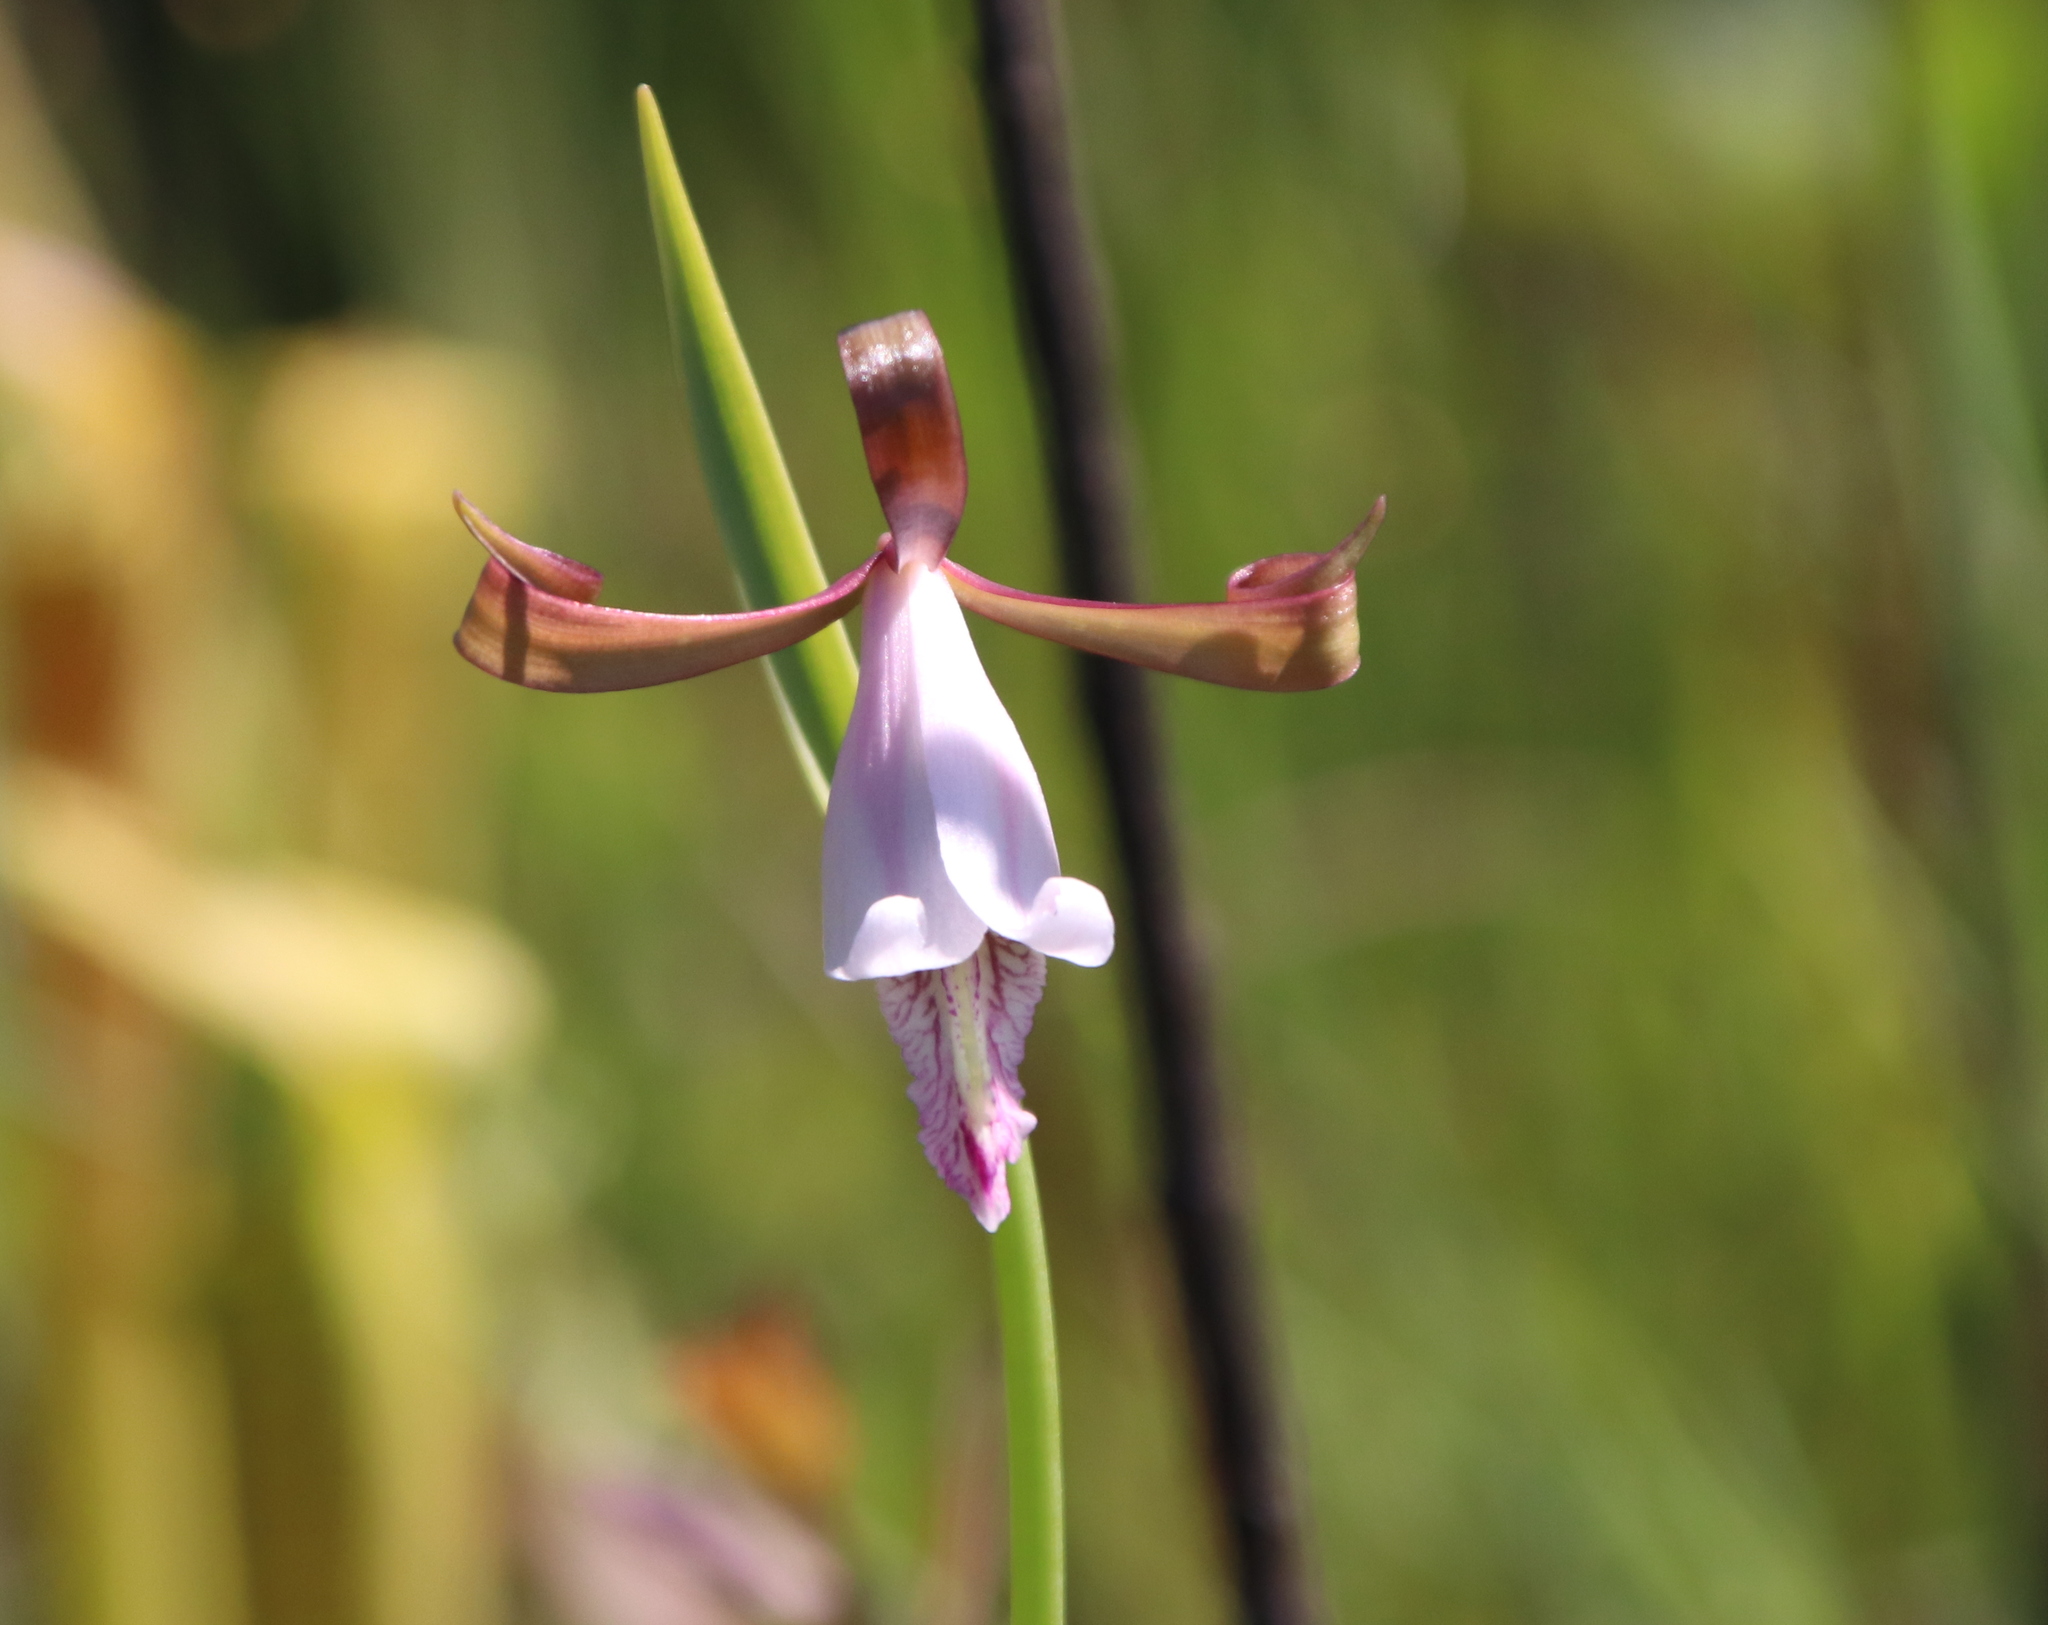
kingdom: Plantae
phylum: Tracheophyta
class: Liliopsida
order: Asparagales
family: Orchidaceae
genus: Cleistesiopsis
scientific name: Cleistesiopsis oricamporum
